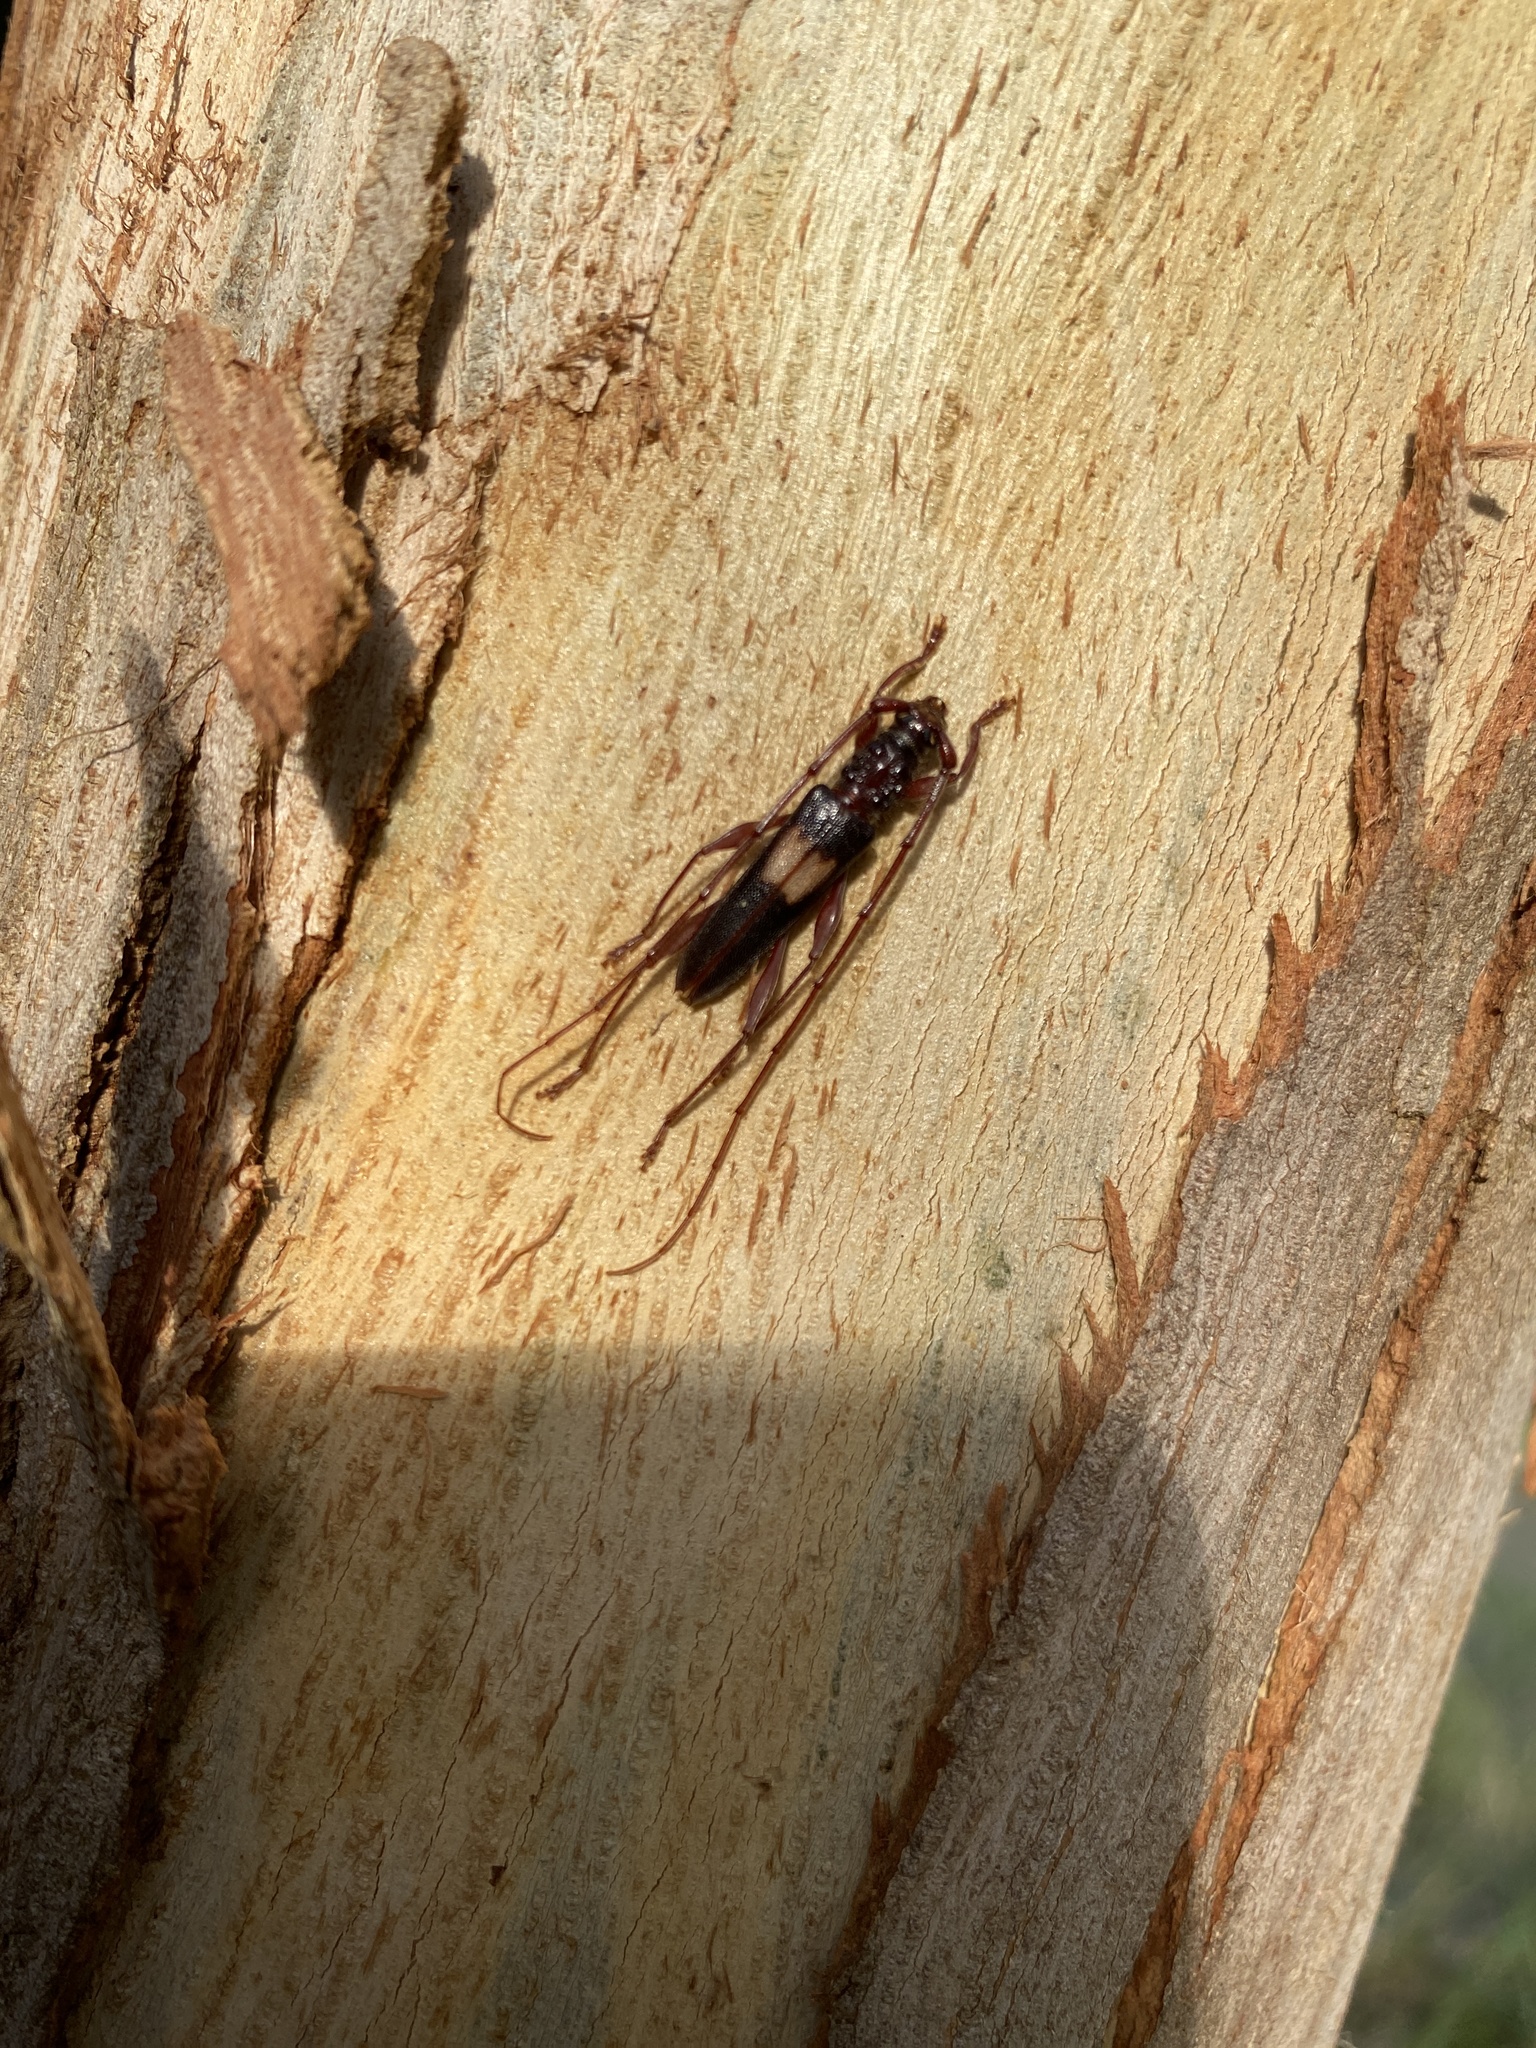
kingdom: Animalia
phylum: Arthropoda
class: Insecta
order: Coleoptera
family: Cerambycidae
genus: Epithora
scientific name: Epithora dorsalis
